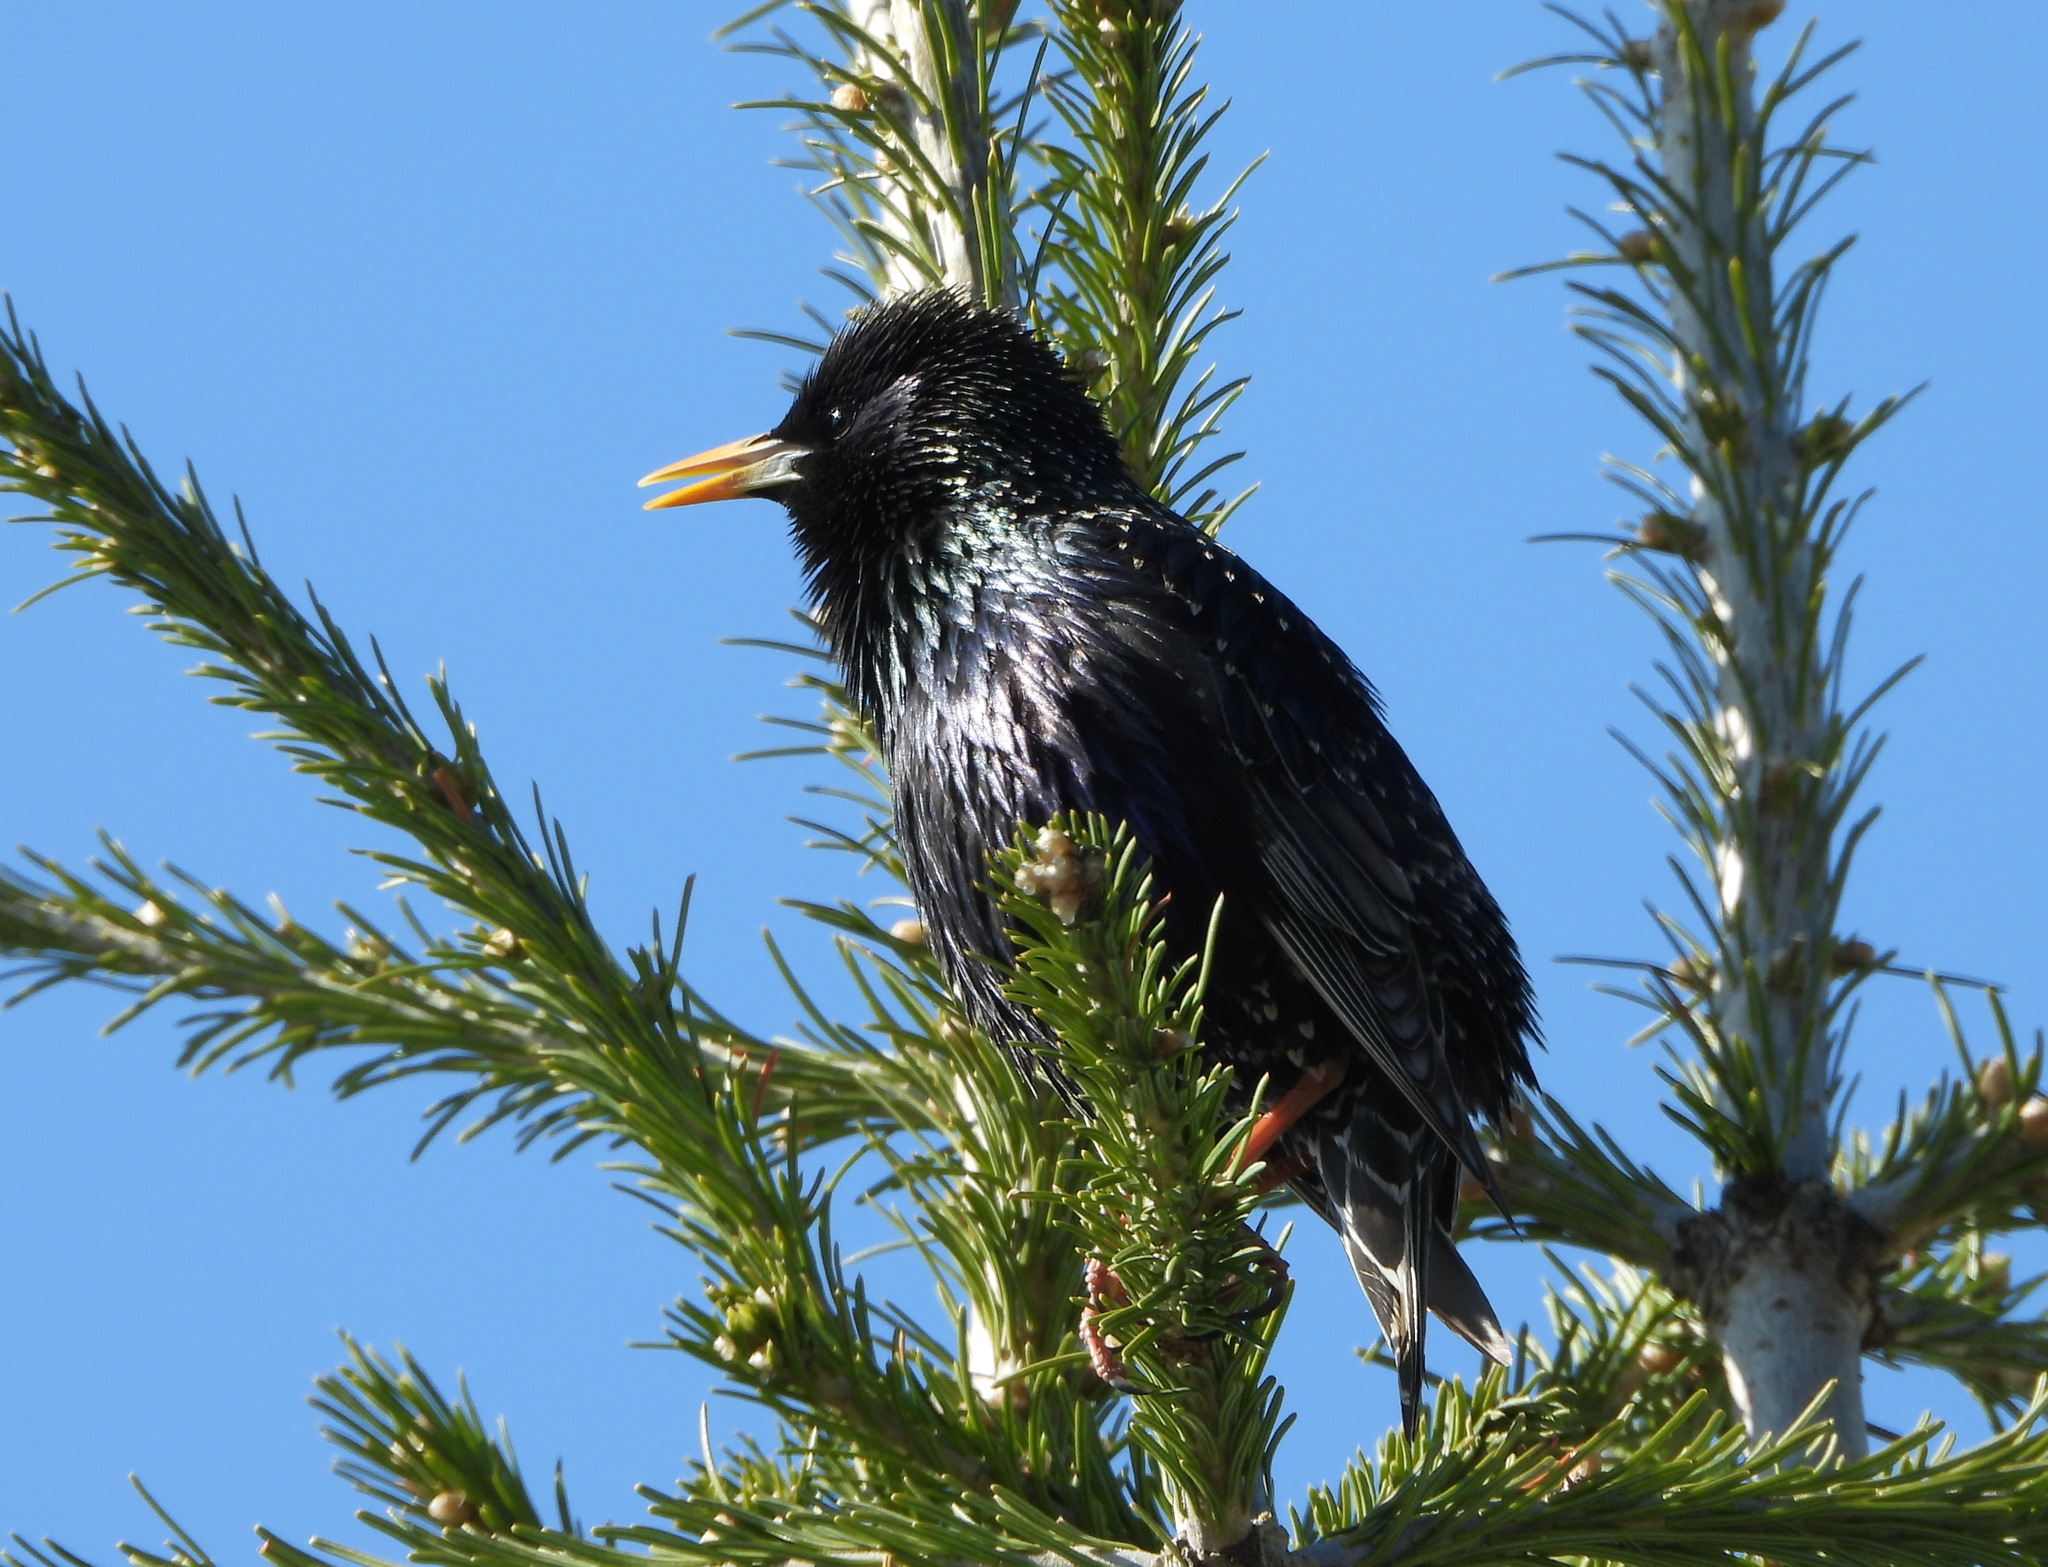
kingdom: Animalia
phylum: Chordata
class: Aves
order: Passeriformes
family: Sturnidae
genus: Sturnus
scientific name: Sturnus vulgaris
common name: Common starling
